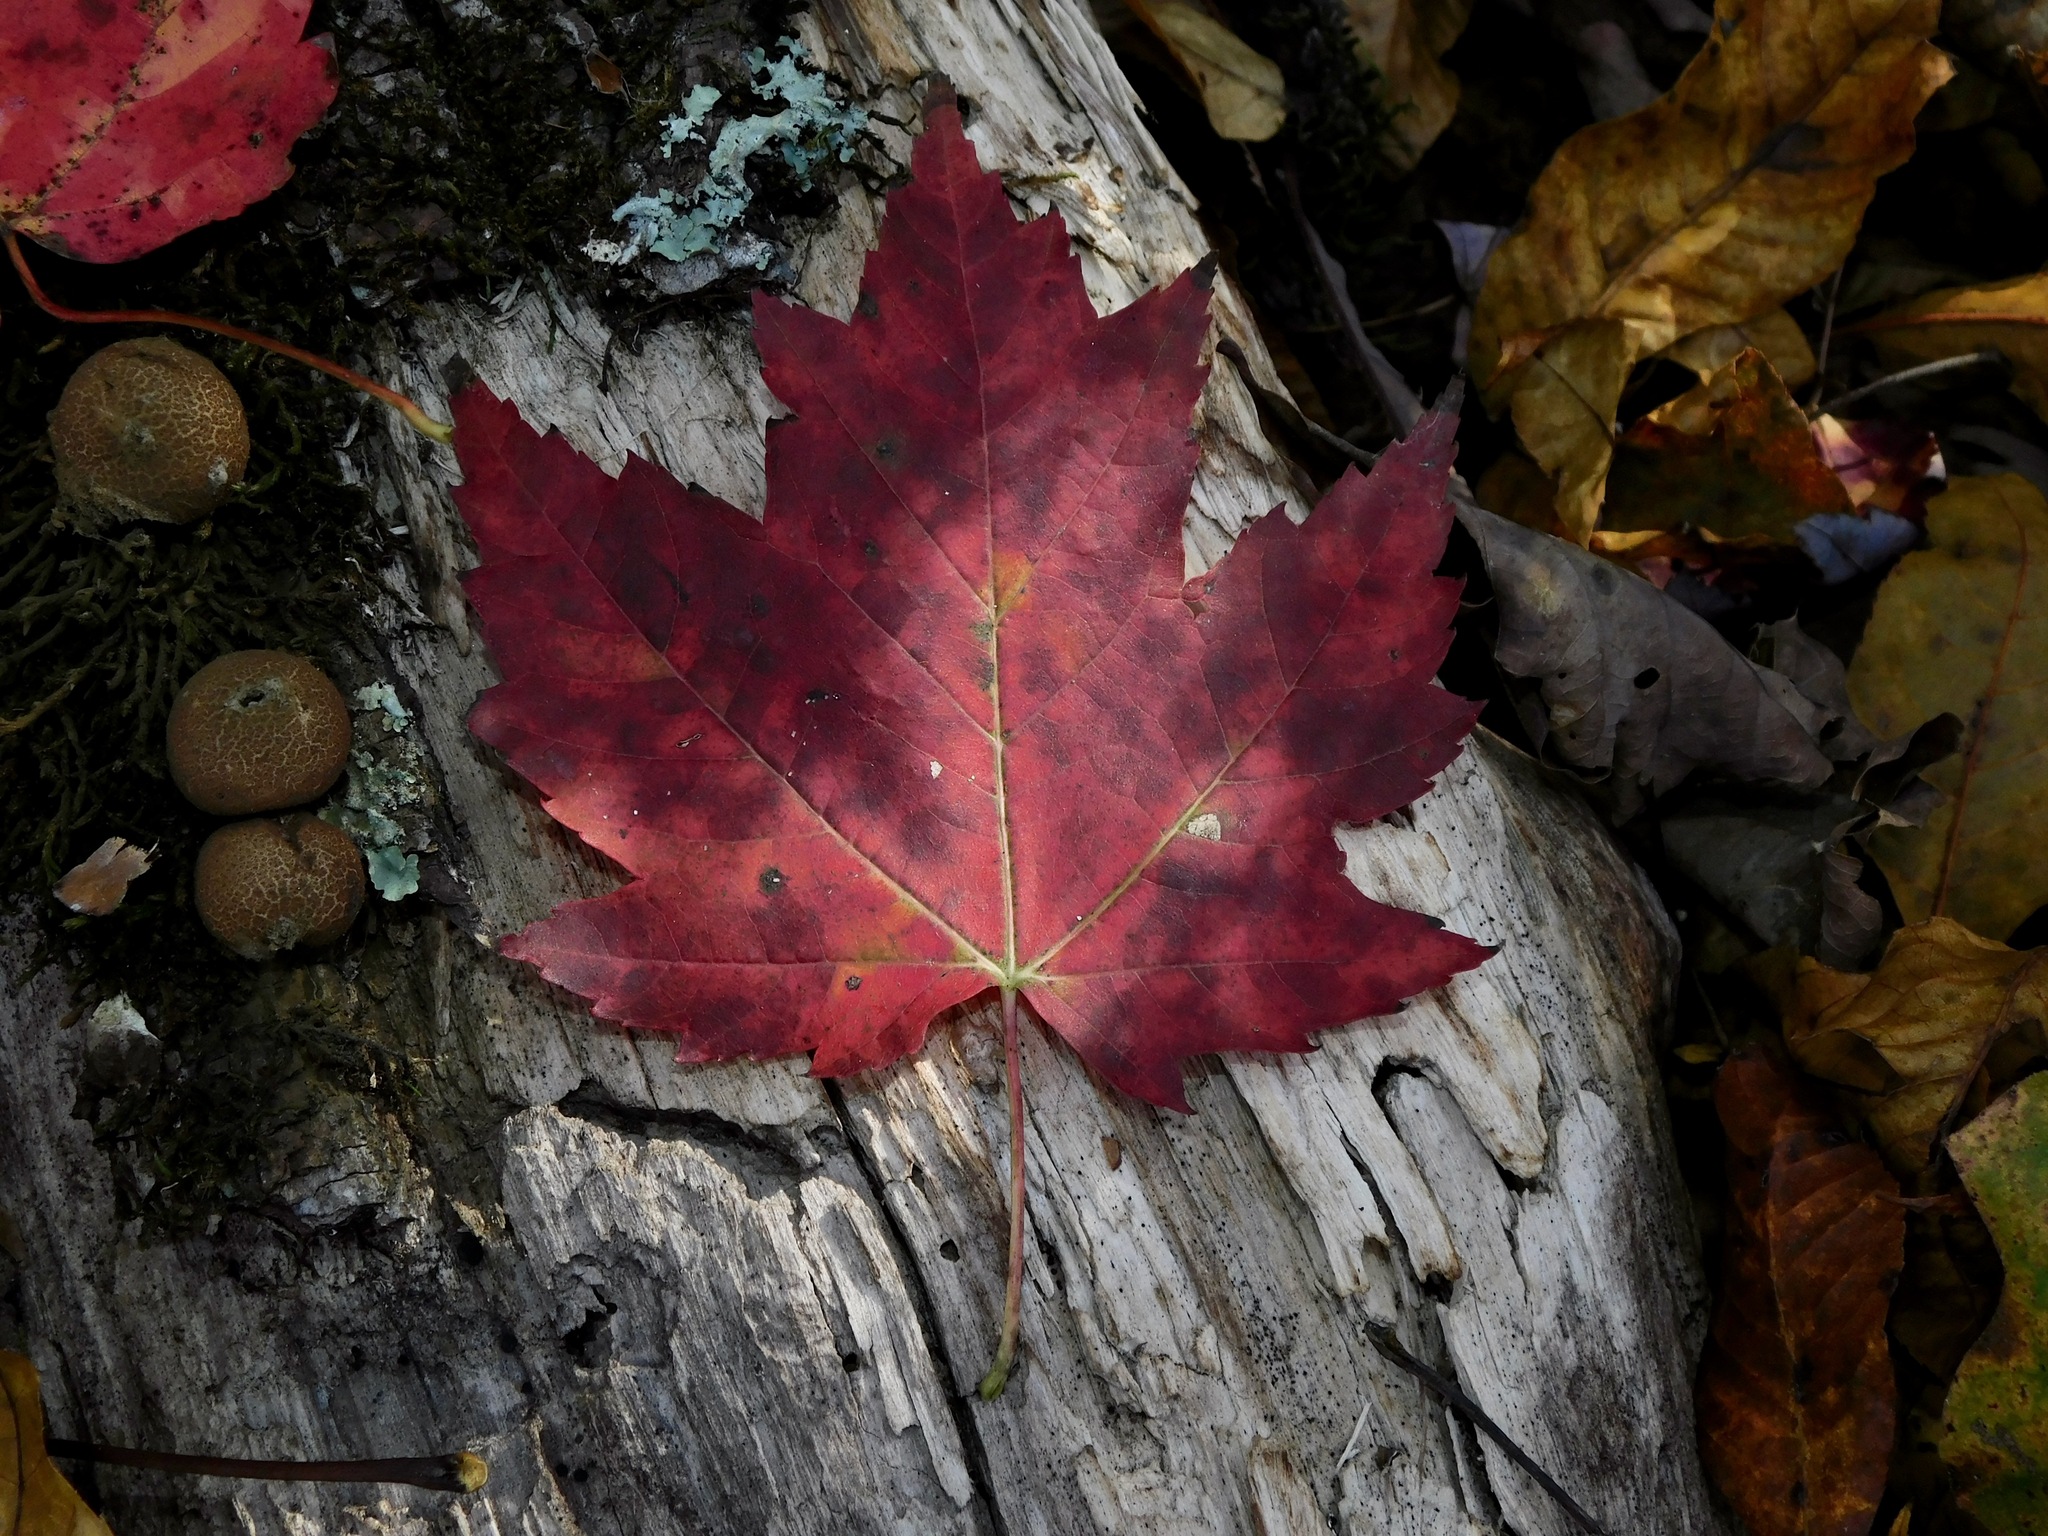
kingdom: Plantae
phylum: Tracheophyta
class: Magnoliopsida
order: Sapindales
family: Sapindaceae
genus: Acer
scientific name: Acer freemanii
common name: Freeman maple
